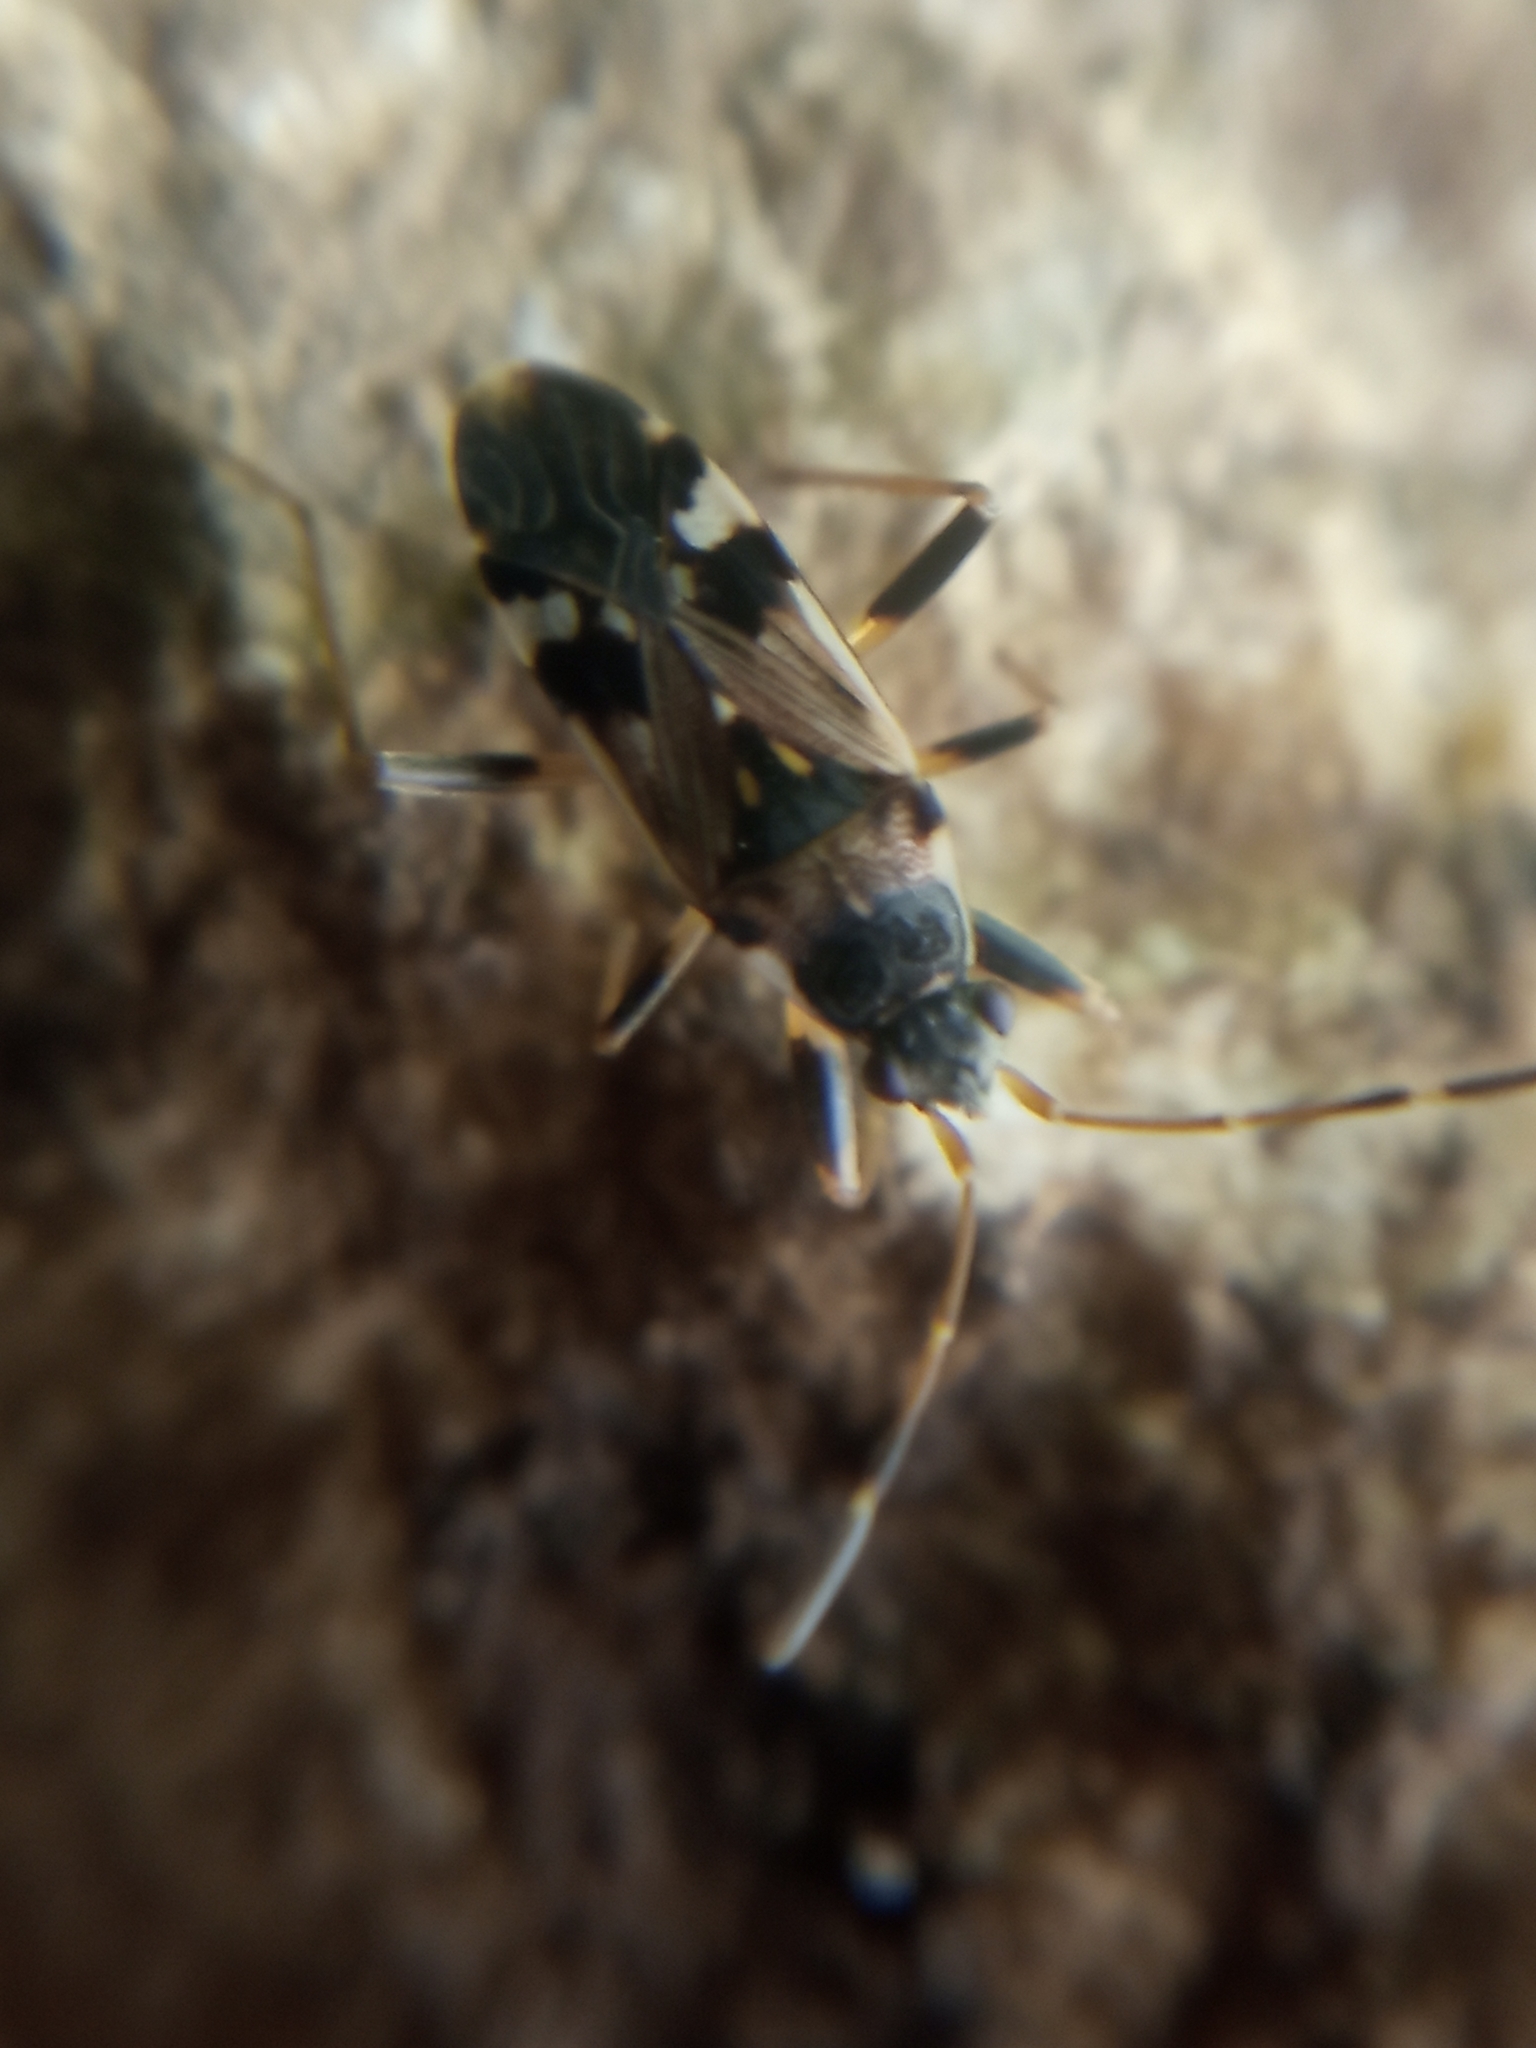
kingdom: Animalia
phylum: Arthropoda
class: Insecta
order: Hemiptera
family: Rhyparochromidae
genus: Beosus
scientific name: Beosus maritimus
